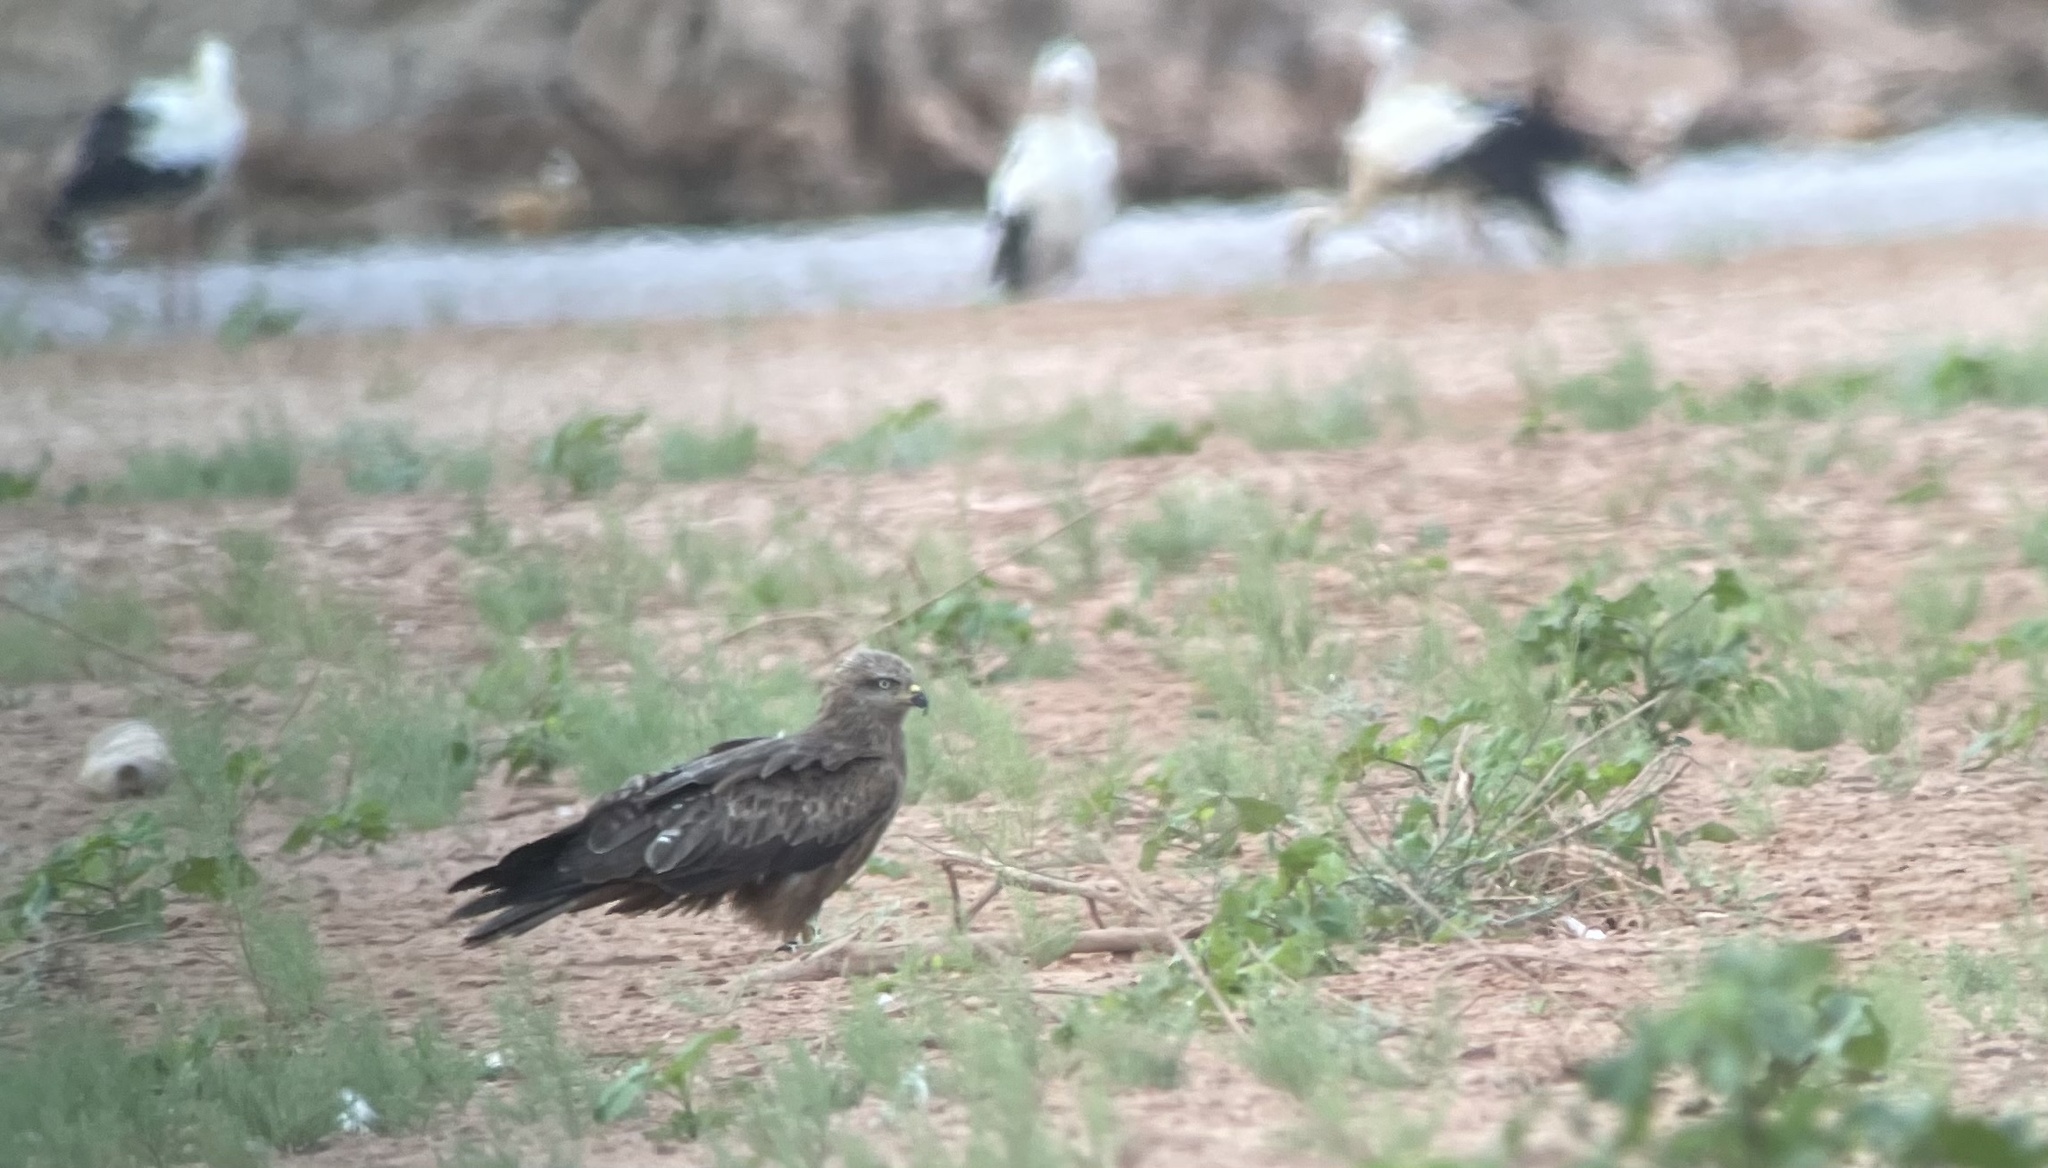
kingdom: Animalia
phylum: Chordata
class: Aves
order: Accipitriformes
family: Accipitridae
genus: Milvus
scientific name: Milvus migrans
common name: Black kite
